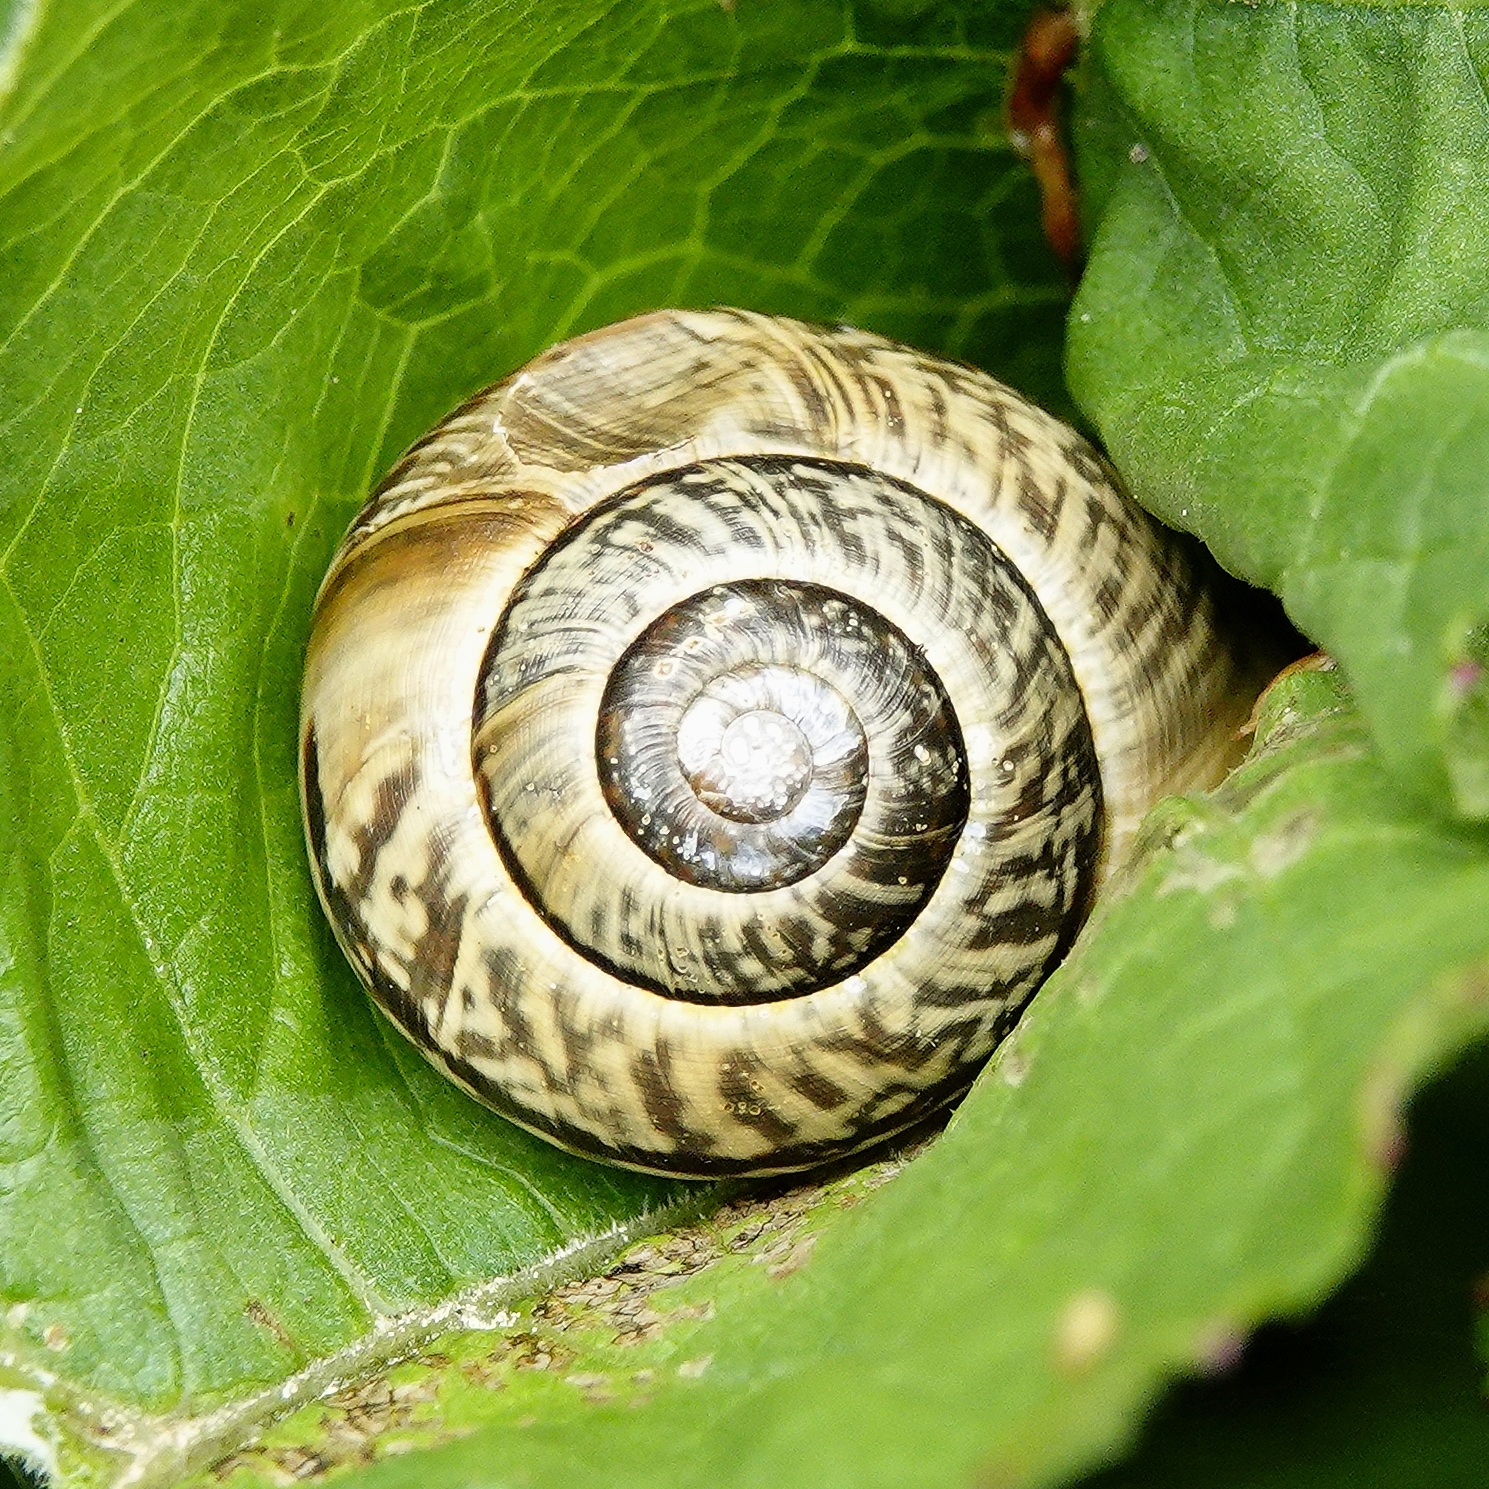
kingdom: Animalia
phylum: Mollusca
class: Gastropoda
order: Stylommatophora
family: Helicidae
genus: Arianta
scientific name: Arianta arbustorum
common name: Copse snail
